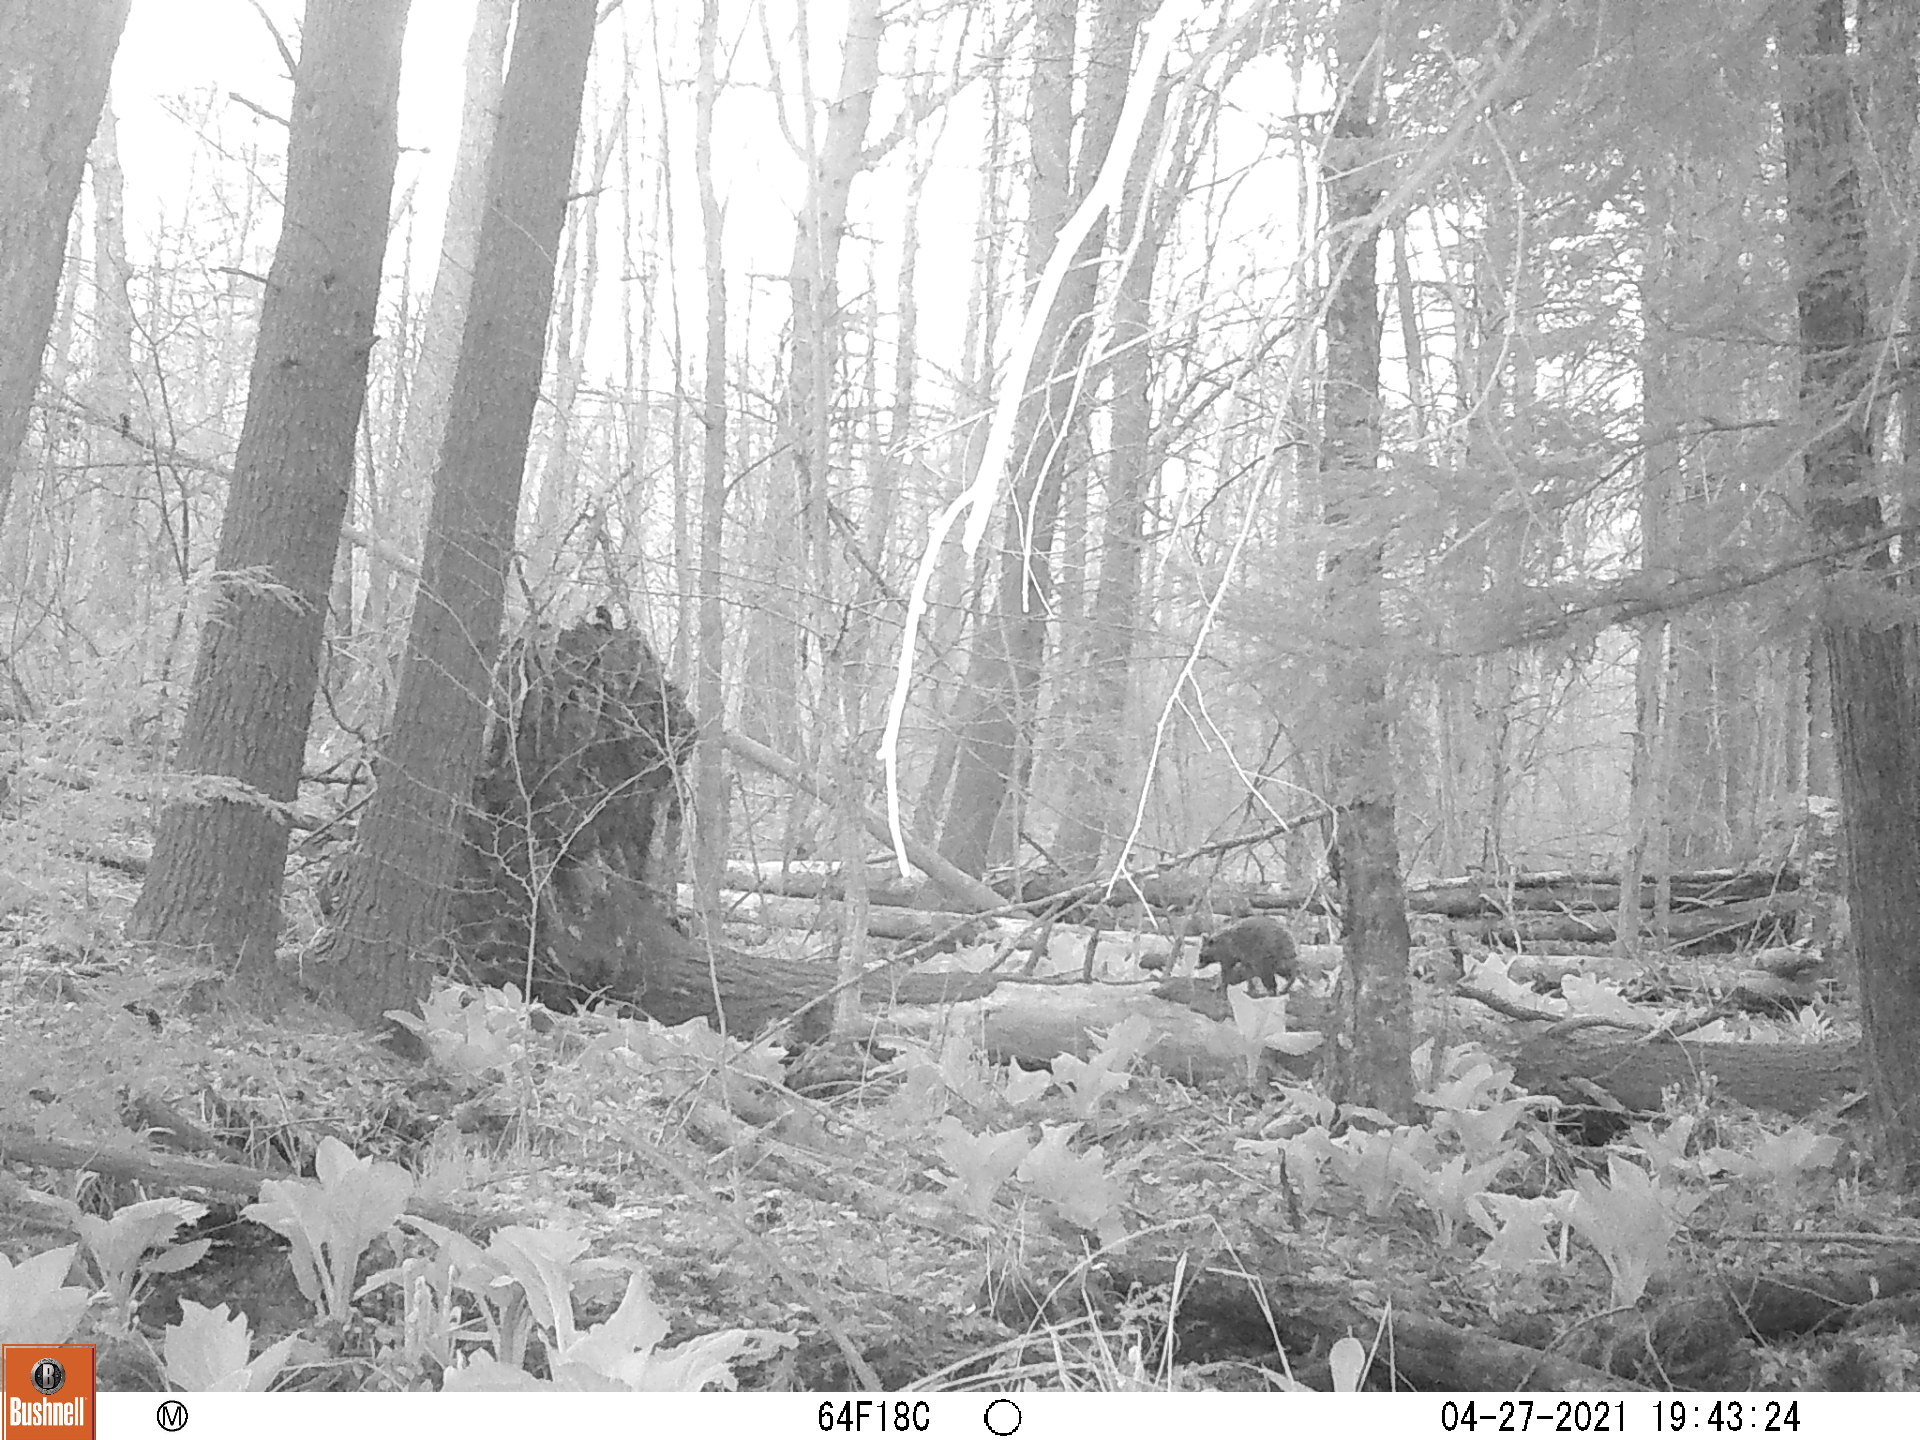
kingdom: Animalia
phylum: Chordata
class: Mammalia
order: Carnivora
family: Procyonidae
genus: Procyon
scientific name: Procyon lotor
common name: Raccoon
